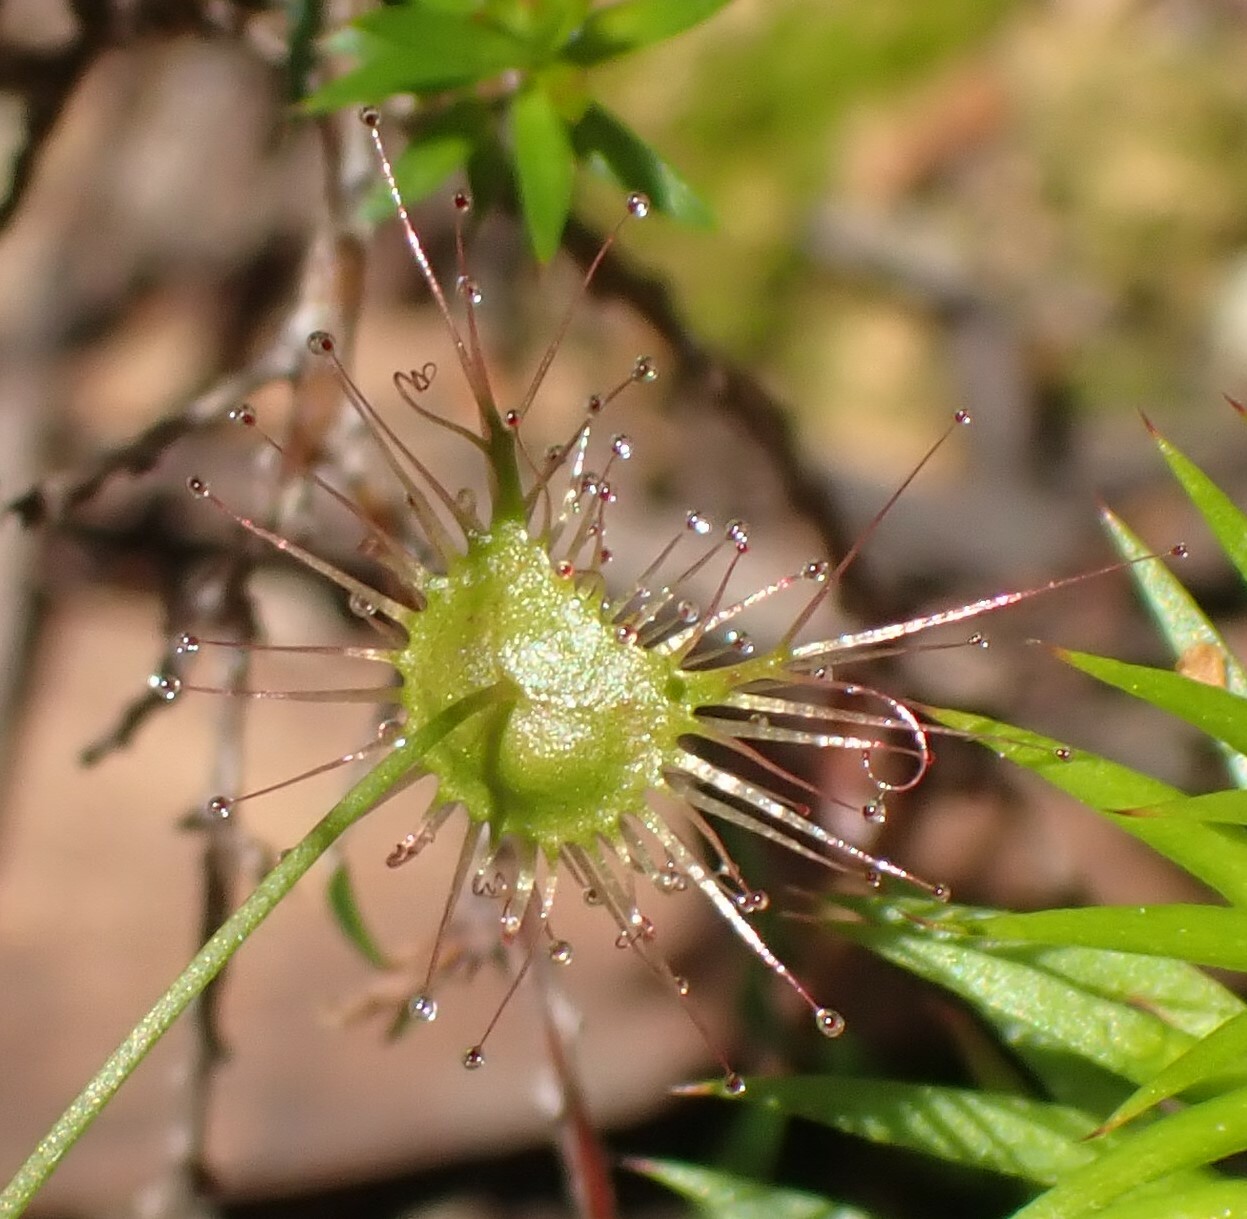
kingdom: Plantae
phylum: Tracheophyta
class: Magnoliopsida
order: Caryophyllales
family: Droseraceae
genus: Drosera
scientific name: Drosera peltata
